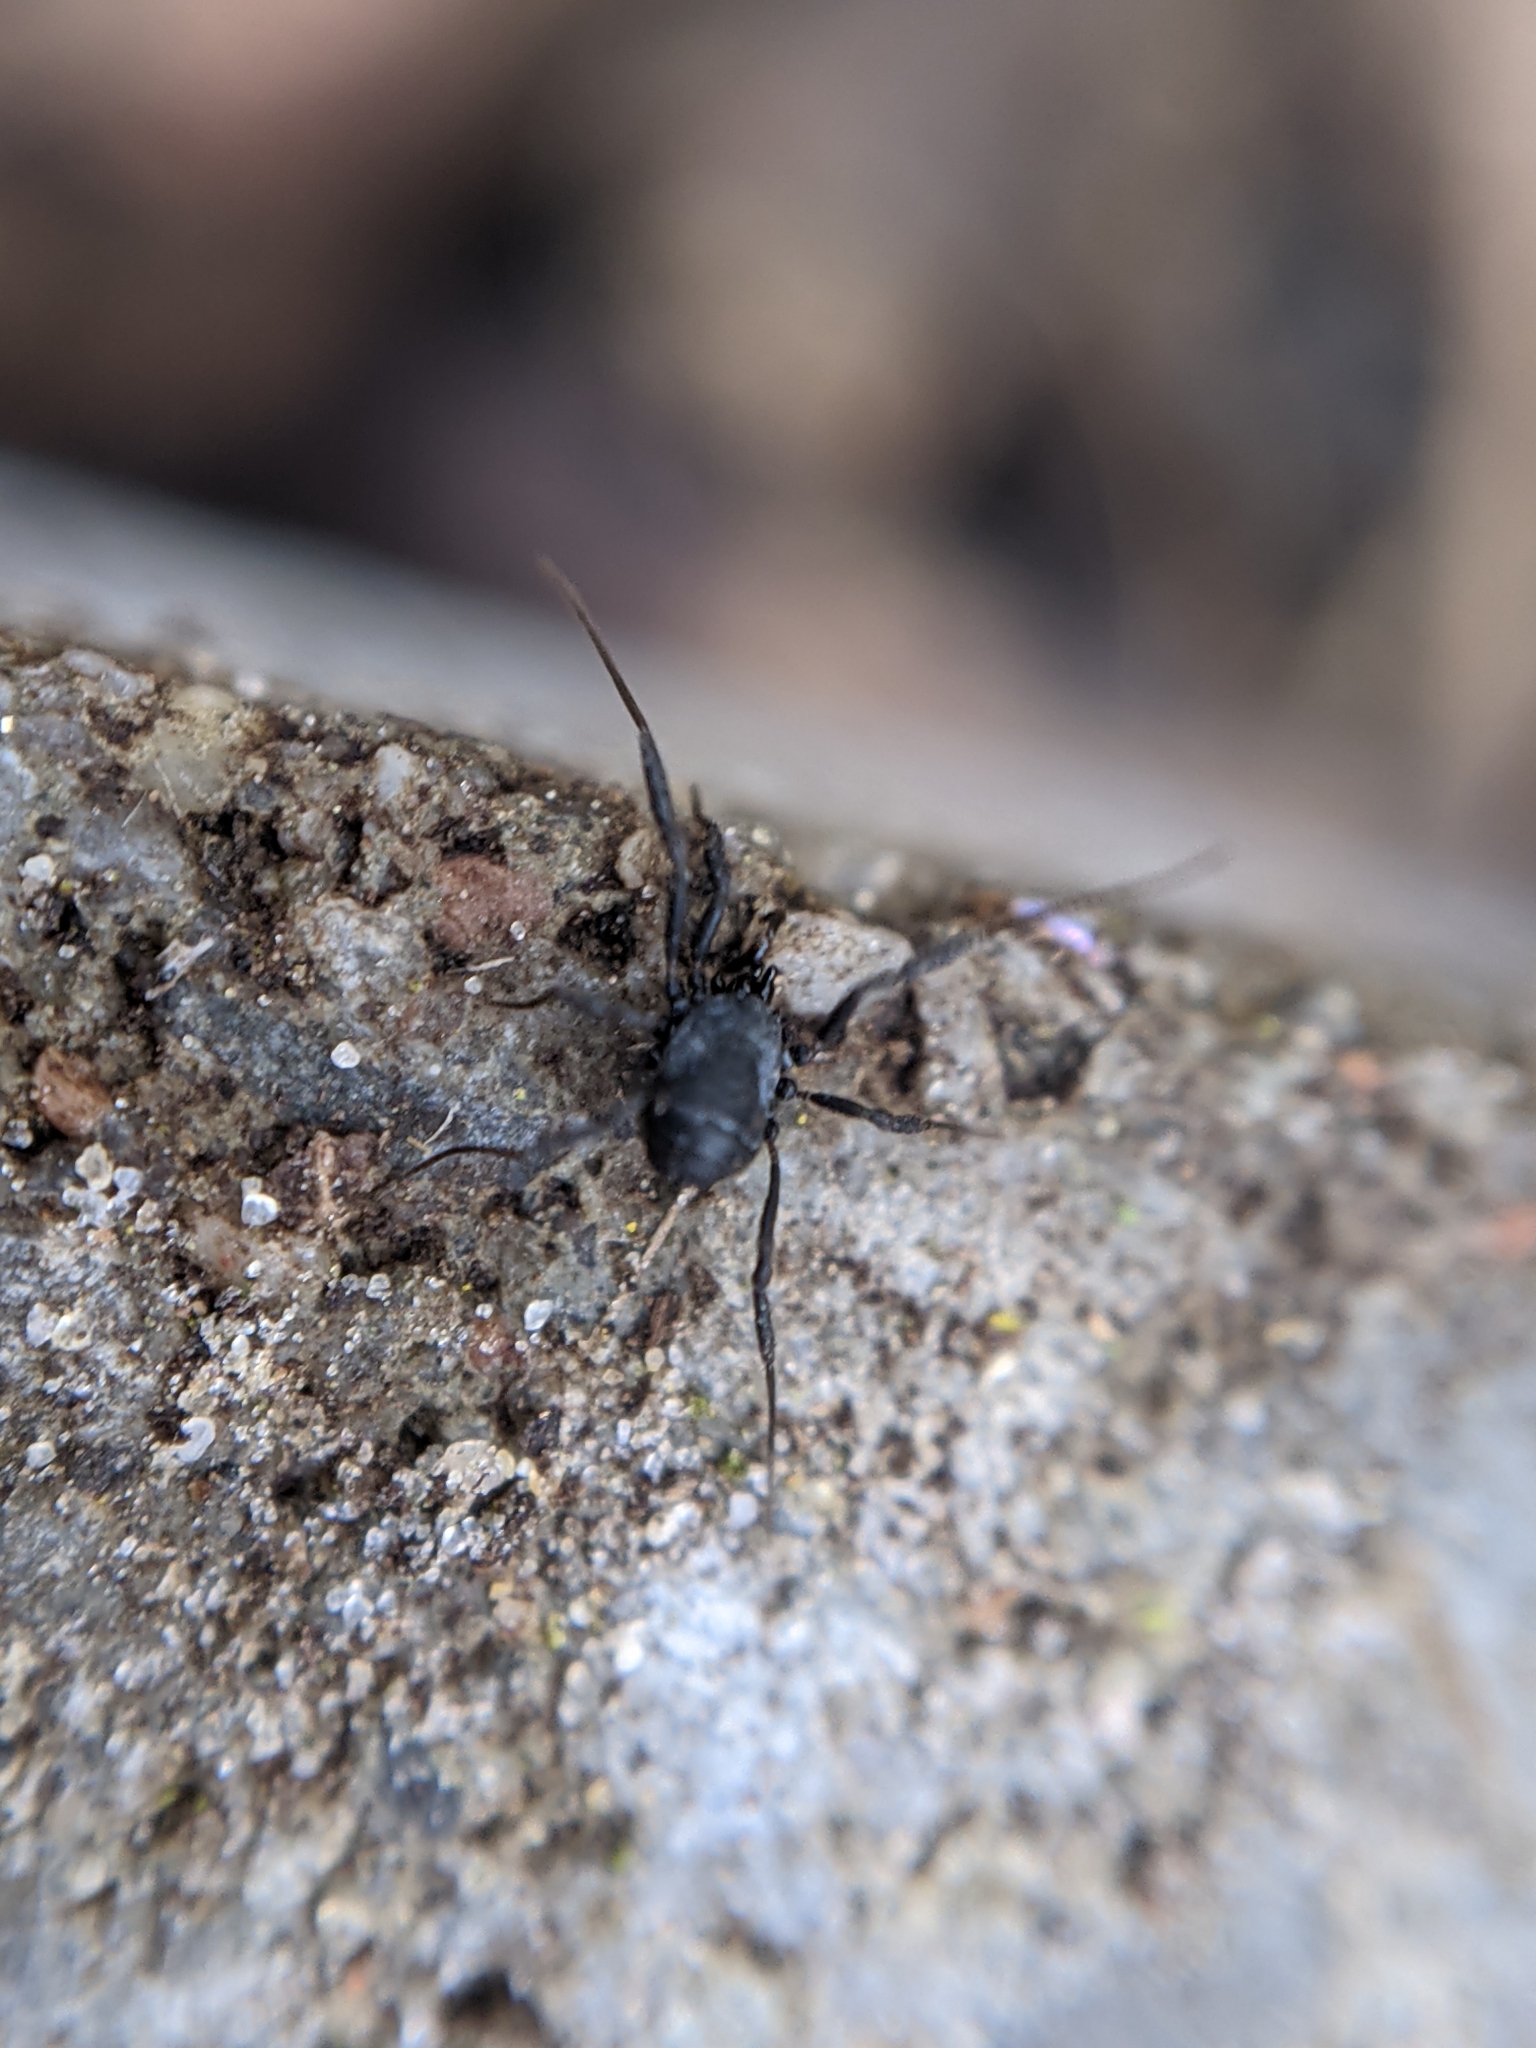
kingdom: Animalia
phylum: Arthropoda
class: Arachnida
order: Opiliones
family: Nemastomatidae
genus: Nemastoma
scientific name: Nemastoma dentigerum
